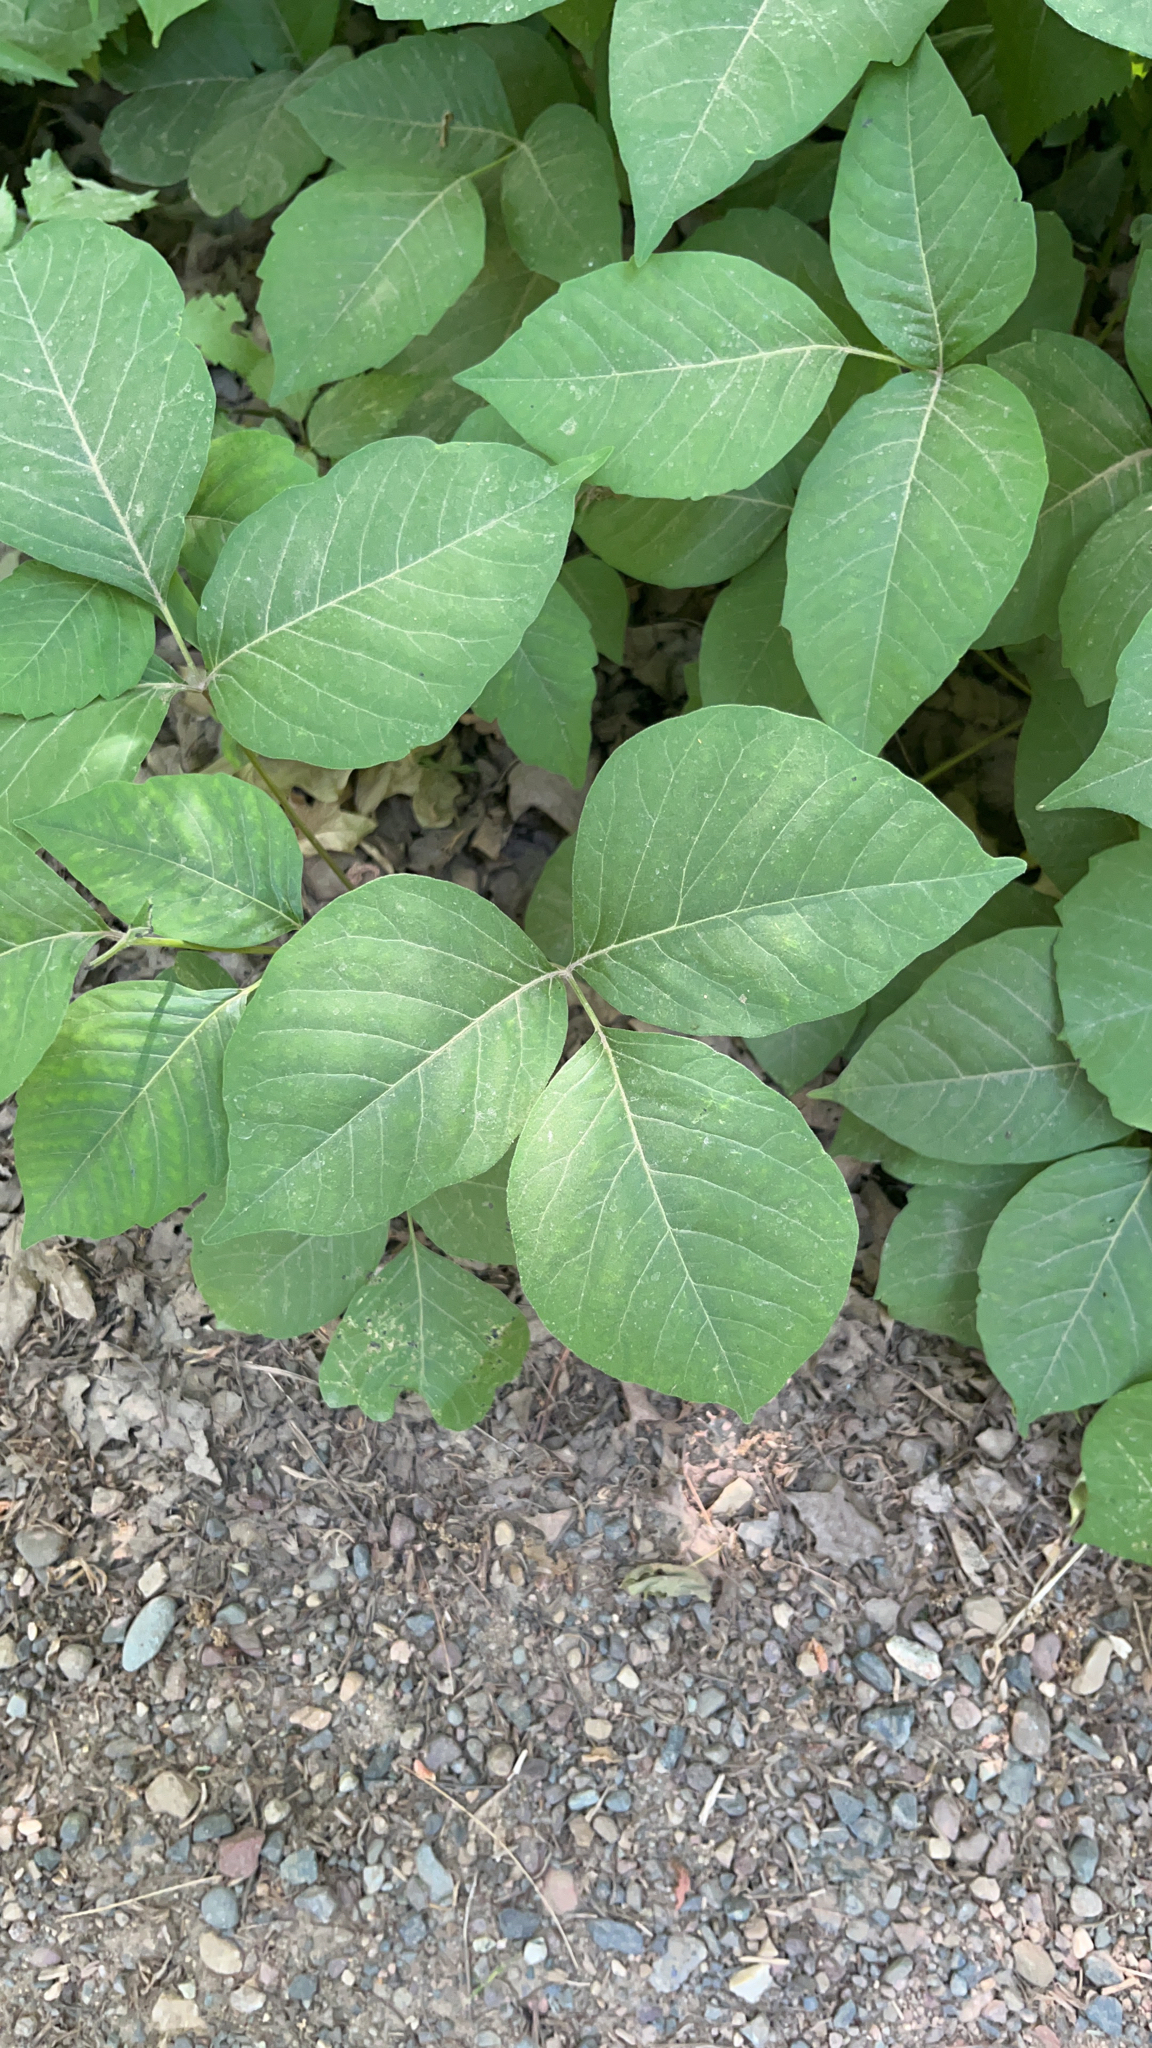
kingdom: Plantae
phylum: Tracheophyta
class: Magnoliopsida
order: Sapindales
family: Anacardiaceae
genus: Toxicodendron
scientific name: Toxicodendron rydbergii
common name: Rydberg's poison-ivy
